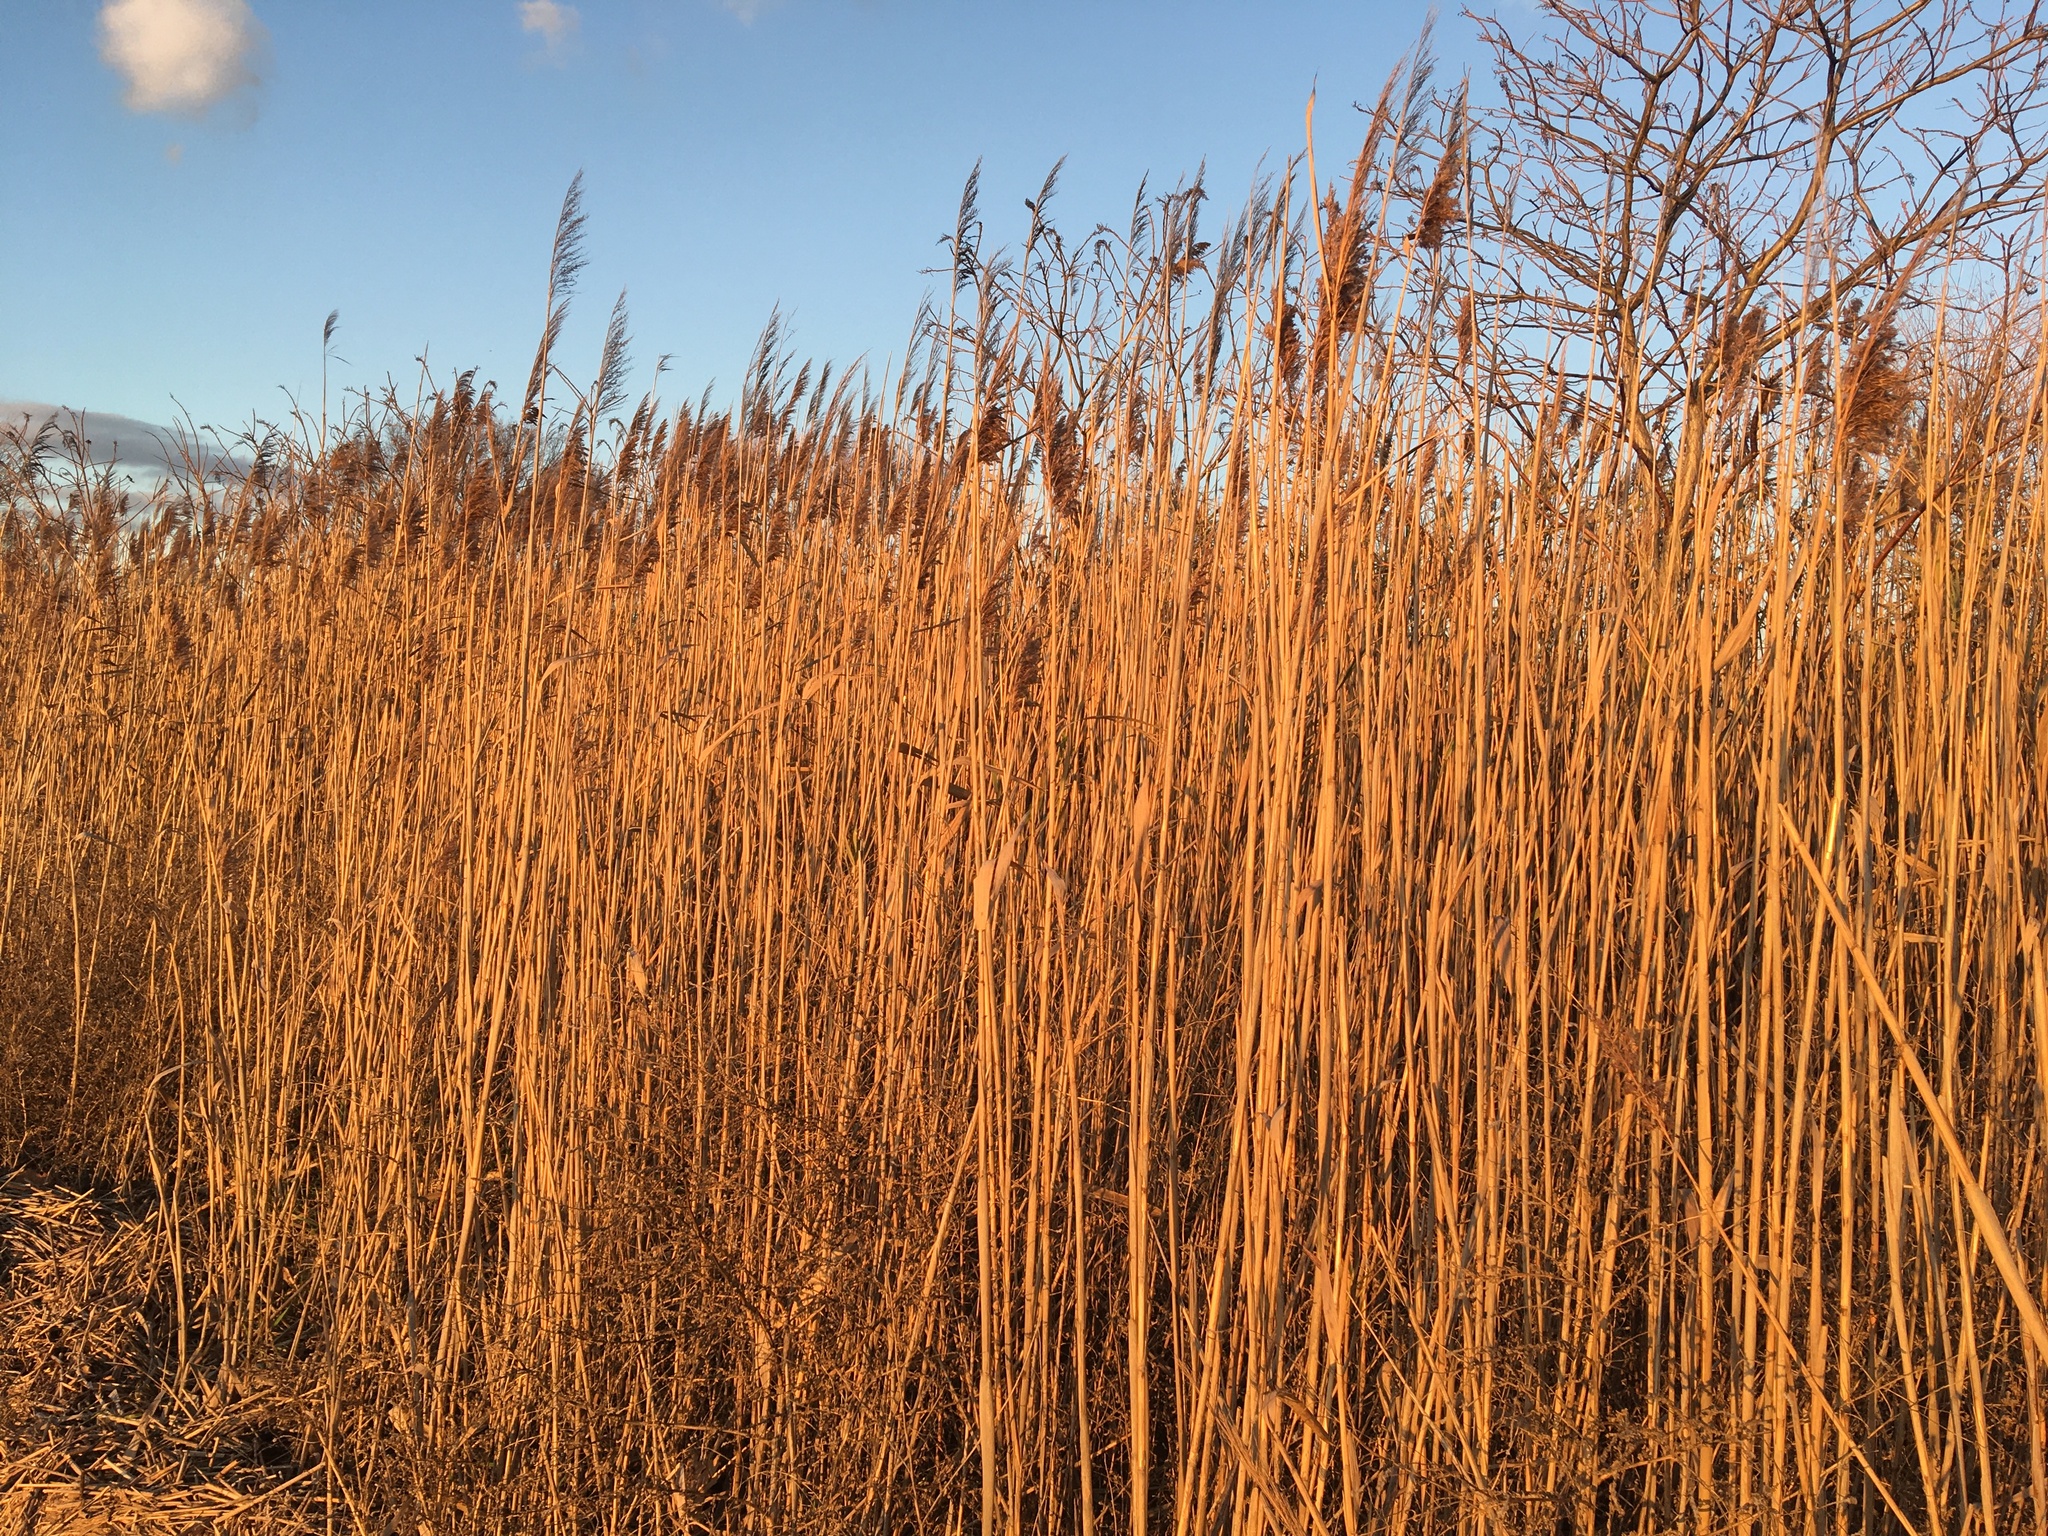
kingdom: Plantae
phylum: Tracheophyta
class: Liliopsida
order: Poales
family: Poaceae
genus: Phragmites
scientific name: Phragmites australis
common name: Common reed
